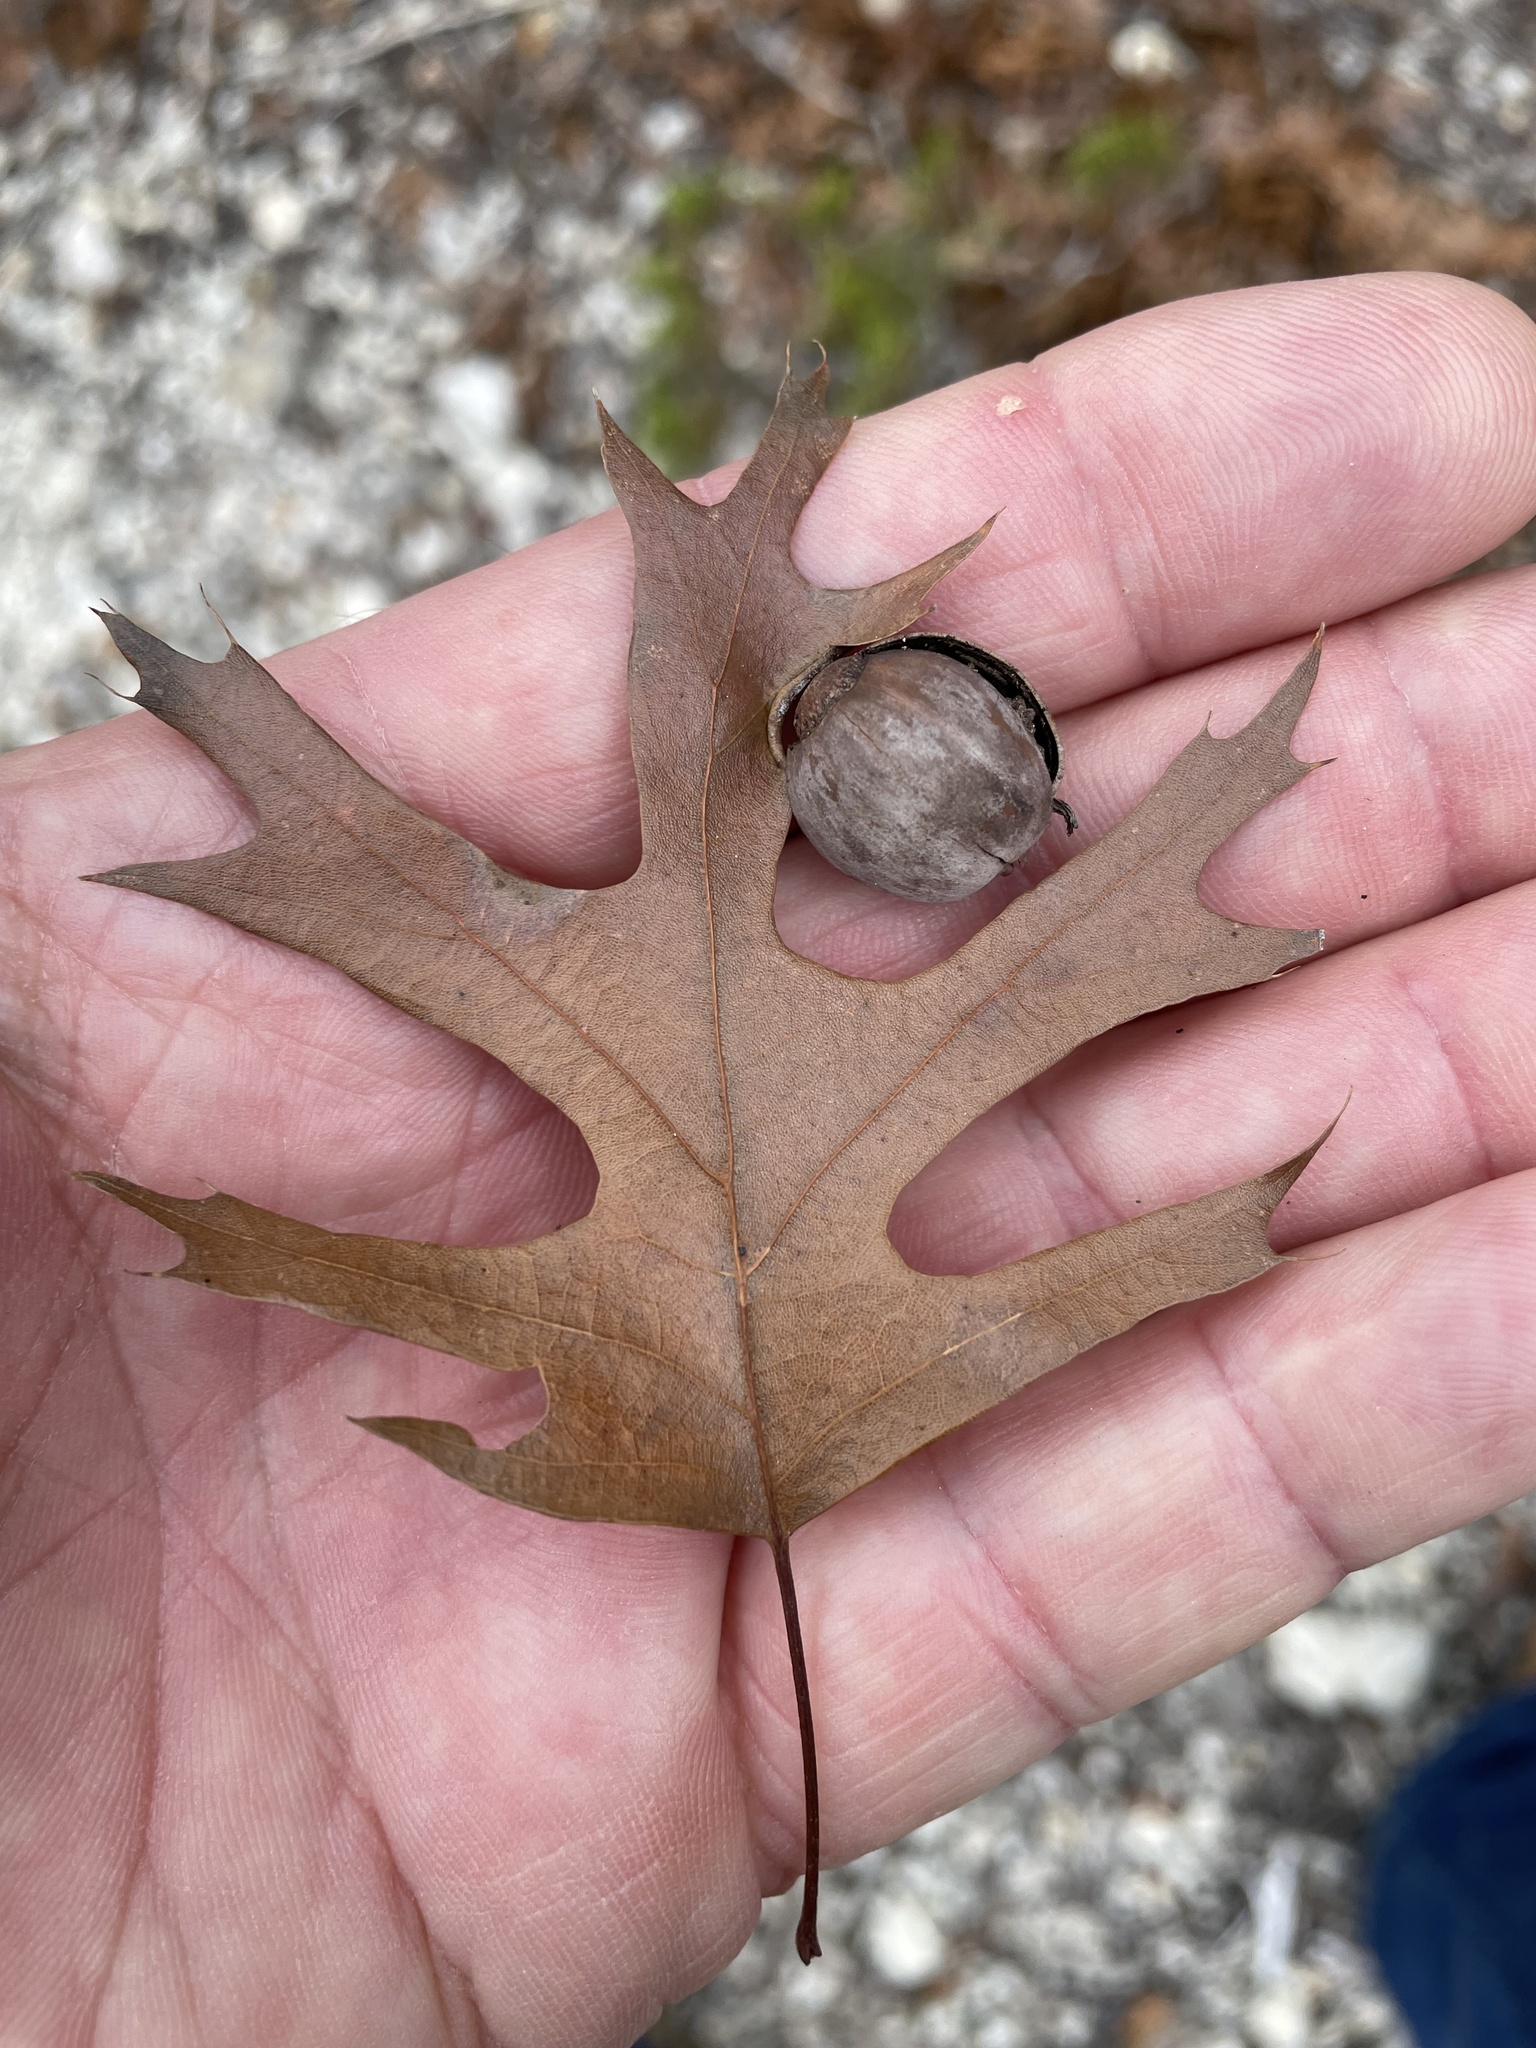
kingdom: Plantae
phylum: Tracheophyta
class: Magnoliopsida
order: Fagales
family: Fagaceae
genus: Quercus
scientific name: Quercus buckleyi
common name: Buckley oak
